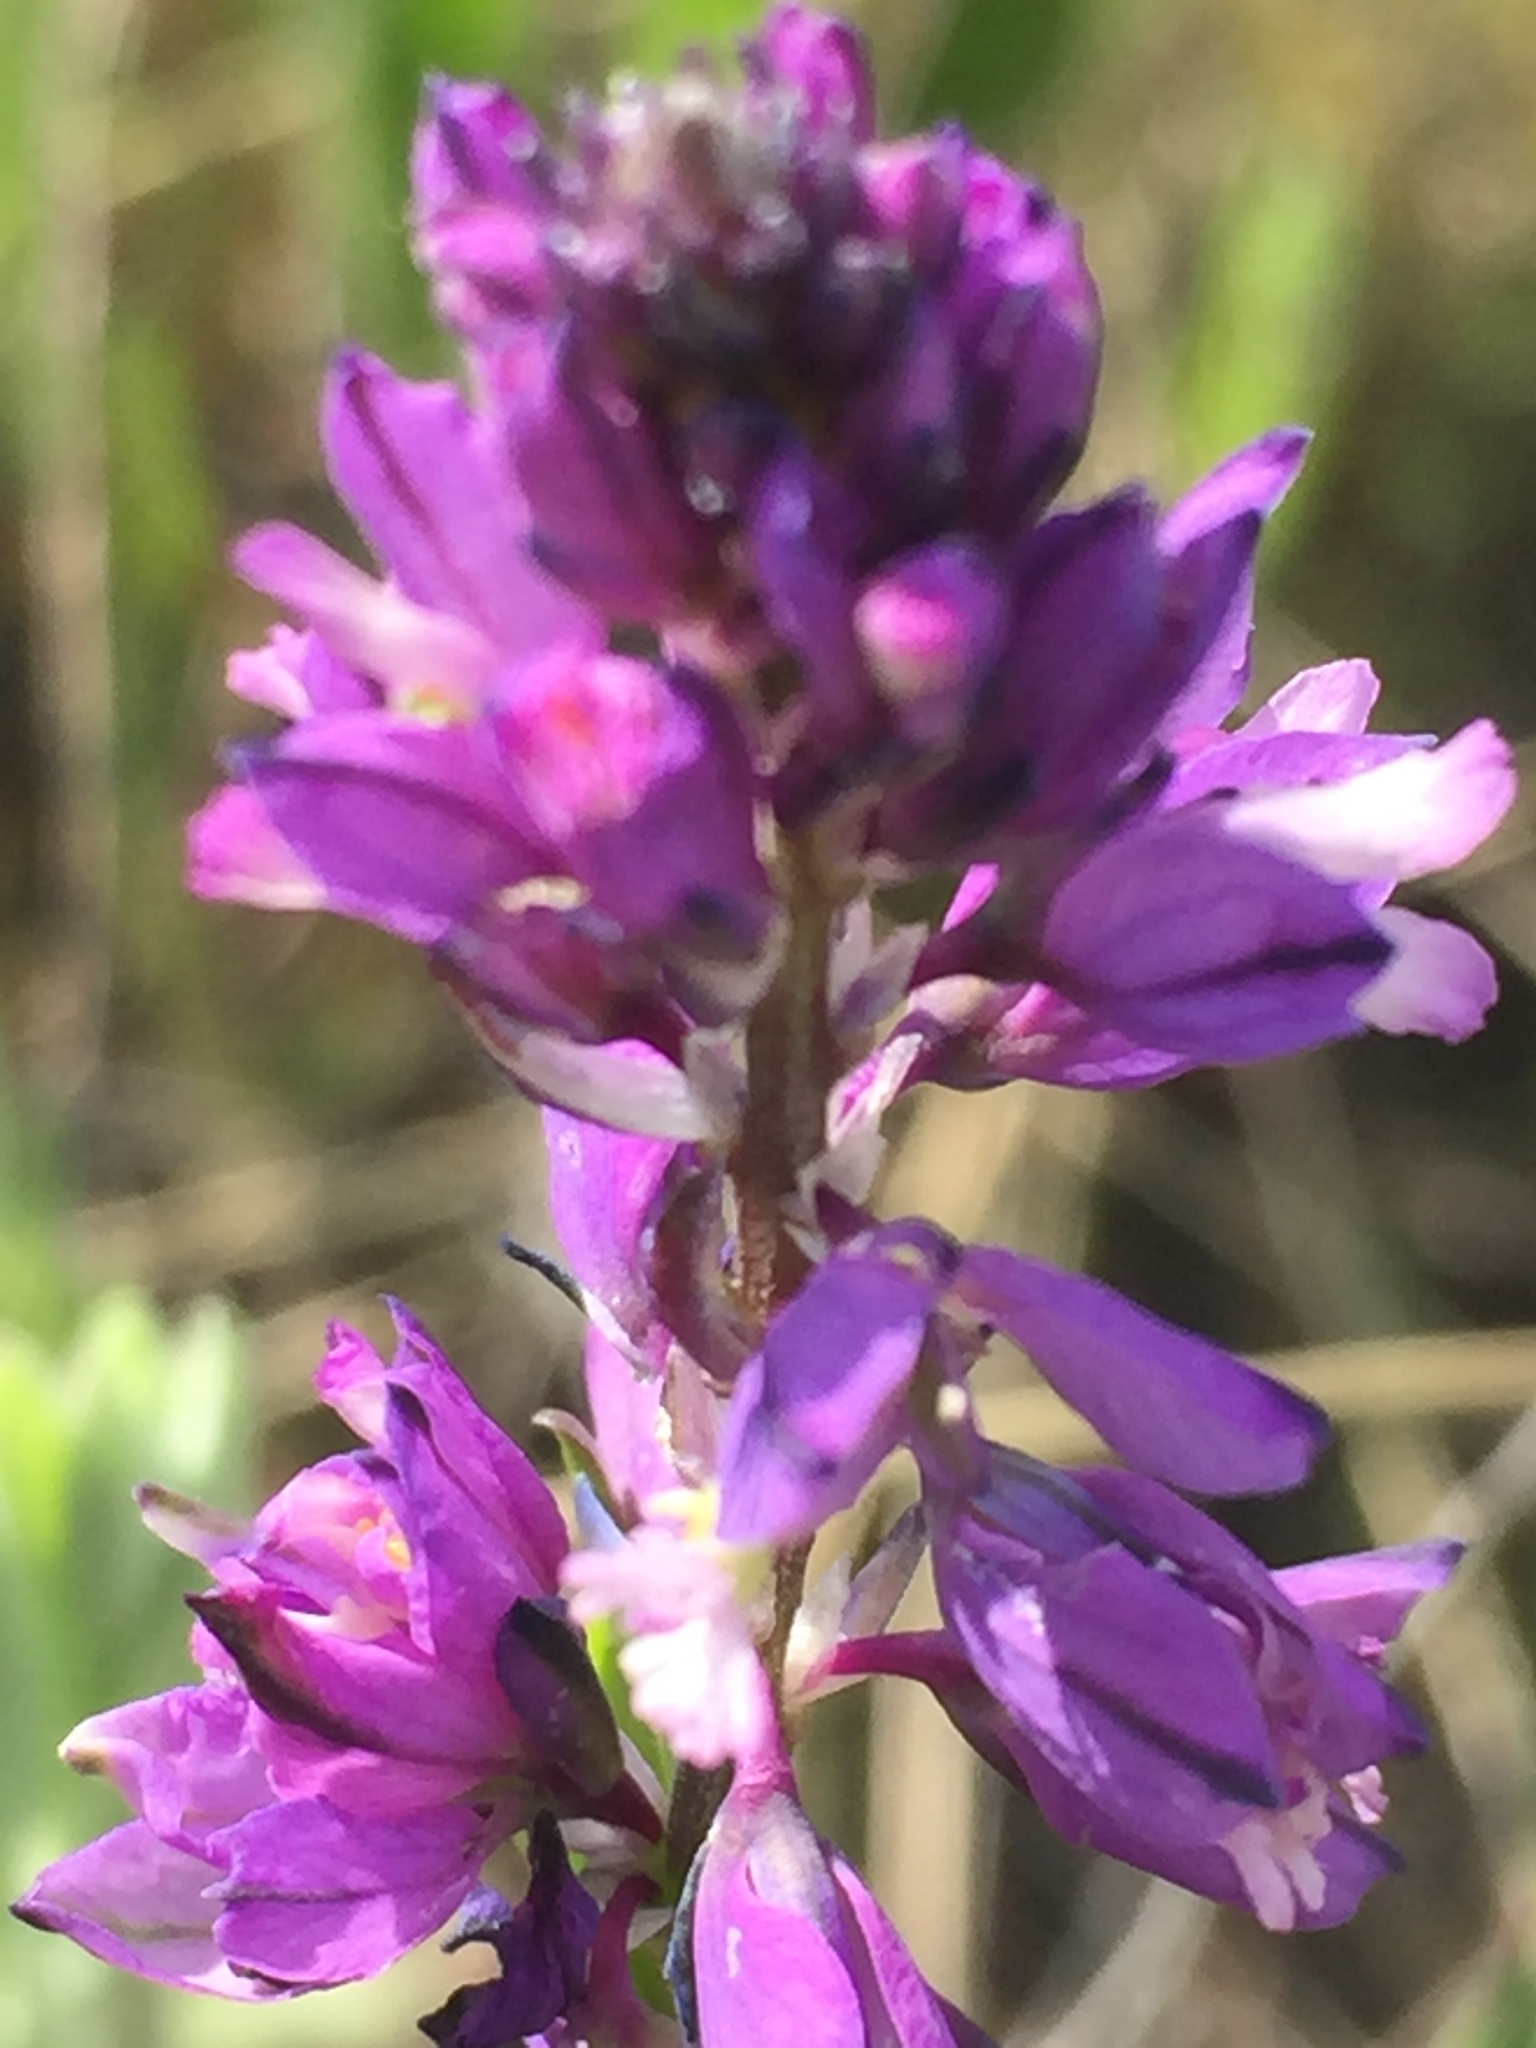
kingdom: Plantae
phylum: Tracheophyta
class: Magnoliopsida
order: Fabales
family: Polygalaceae
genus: Polygala
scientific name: Polygala comosa
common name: Tufted milkwort
